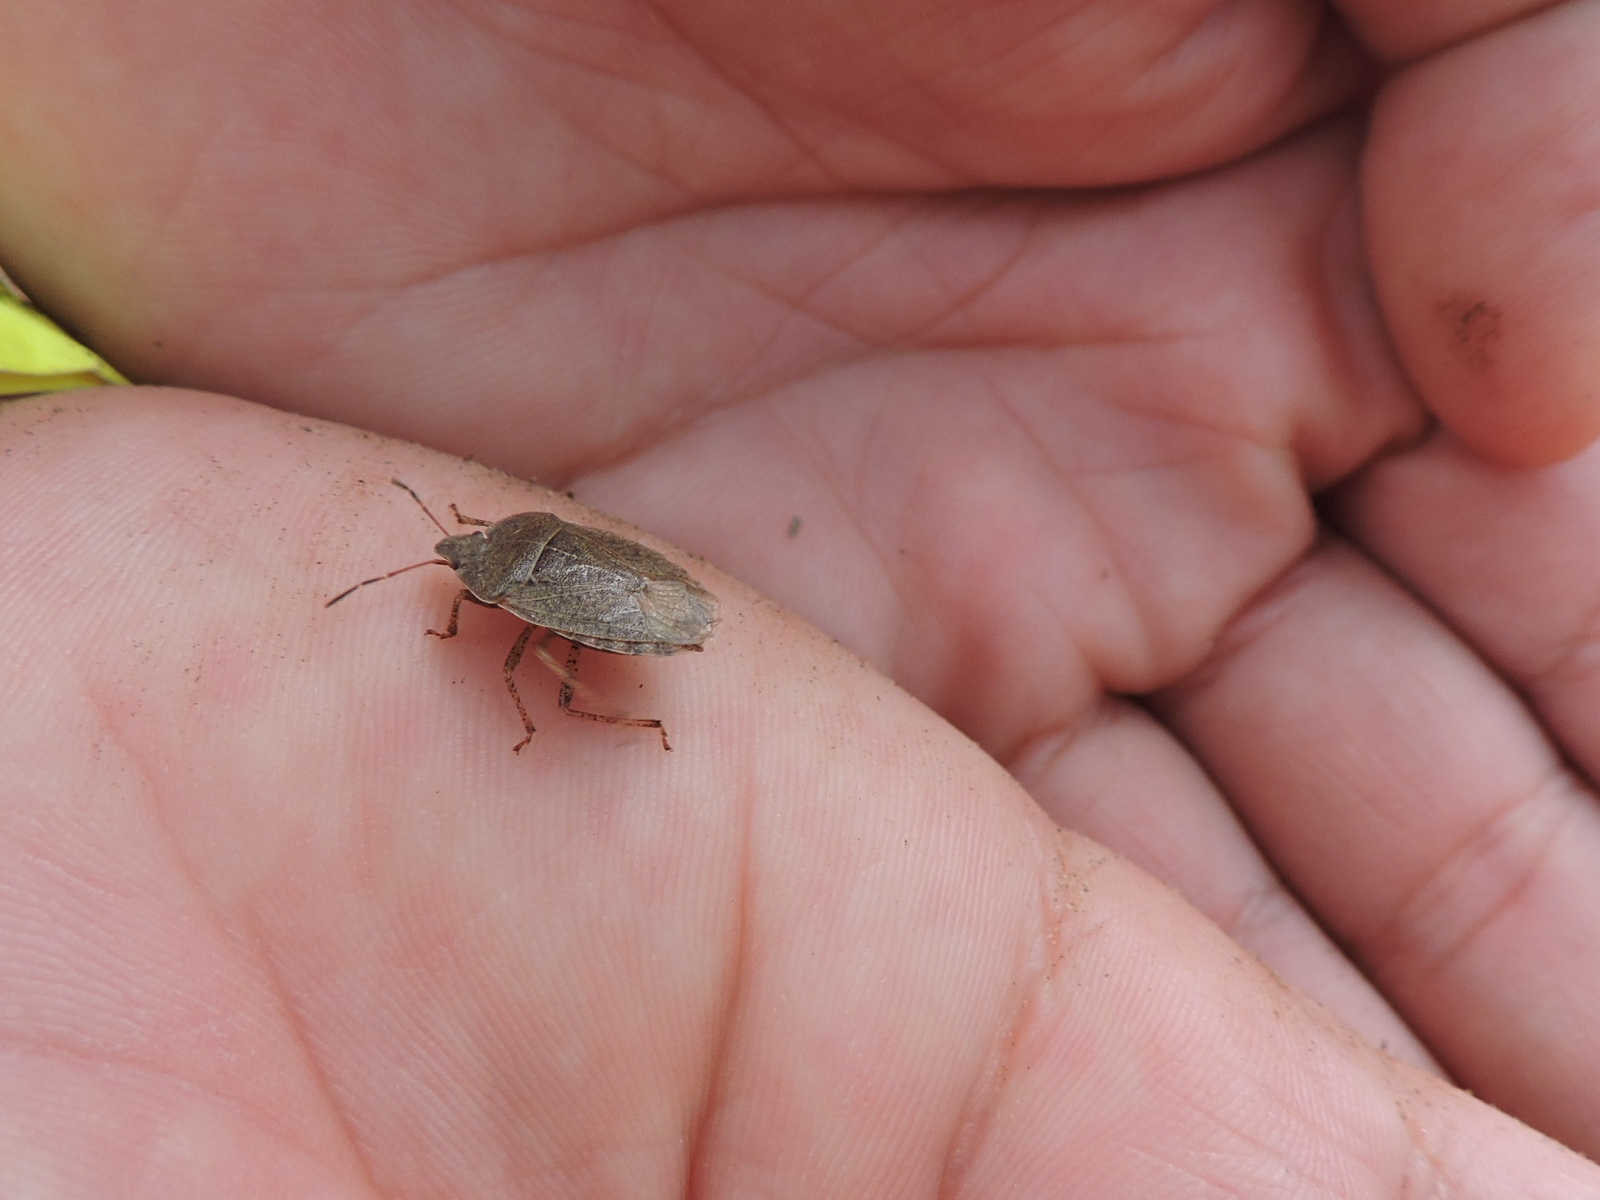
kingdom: Animalia
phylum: Arthropoda
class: Insecta
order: Hemiptera
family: Pentatomidae
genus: Menecles
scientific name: Menecles insertus
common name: Elf shoe stink bug
